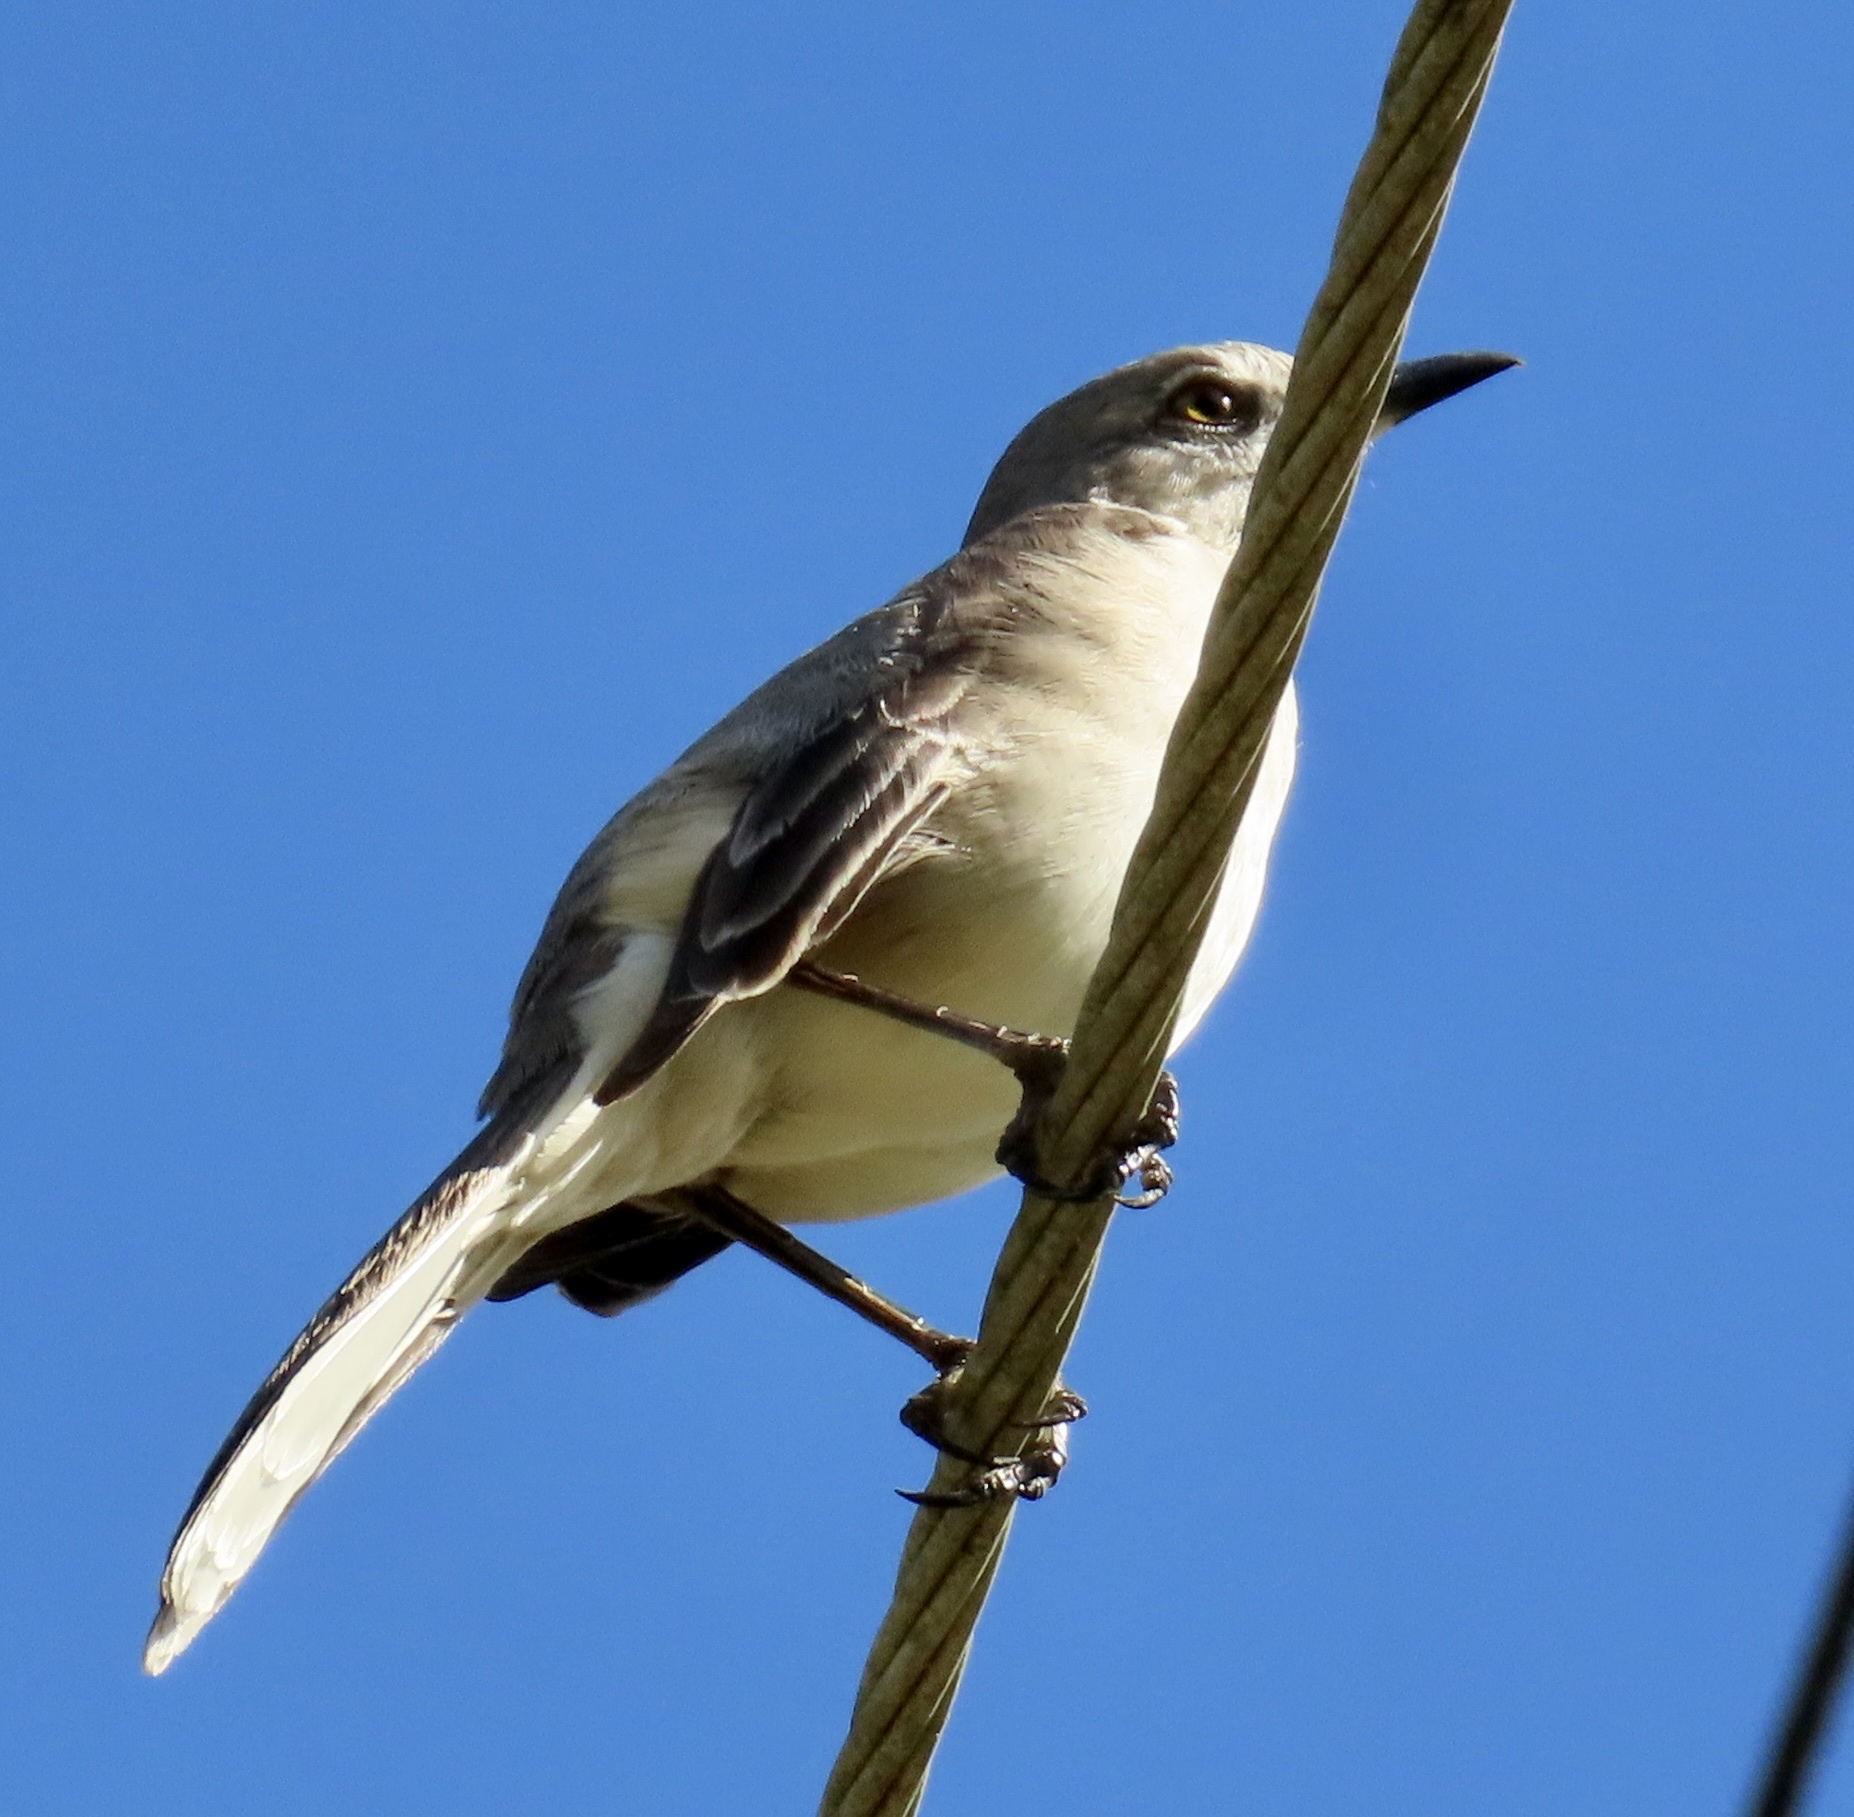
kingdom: Animalia
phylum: Chordata
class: Aves
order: Passeriformes
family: Mimidae
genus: Mimus
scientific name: Mimus polyglottos
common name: Northern mockingbird
